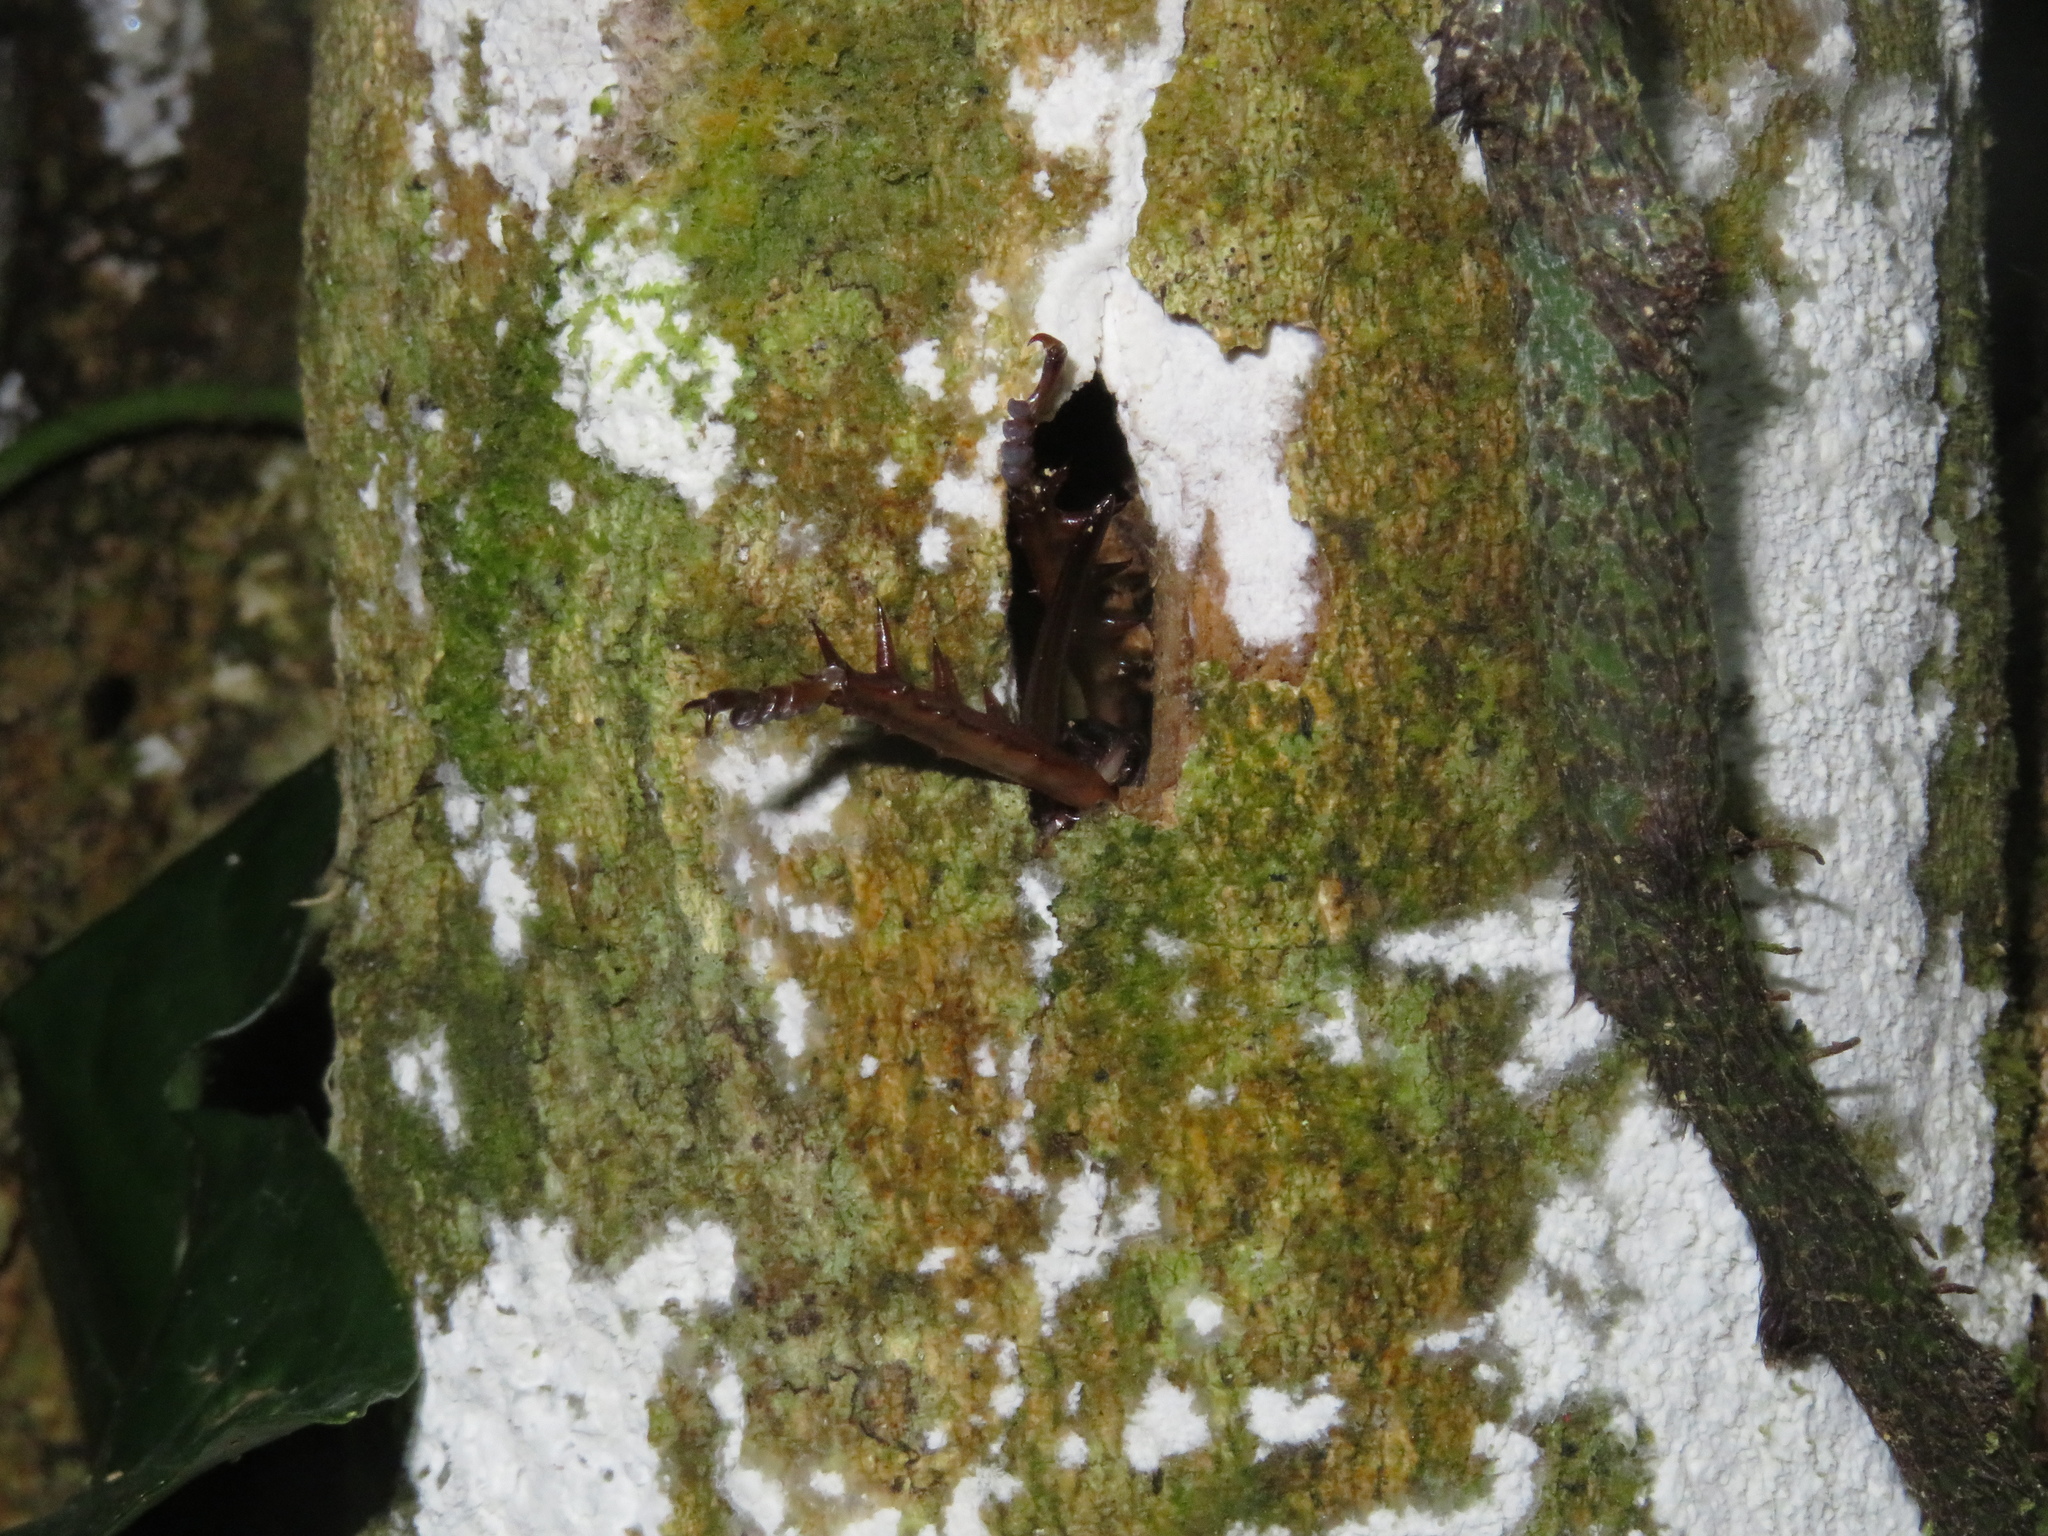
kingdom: Animalia
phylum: Arthropoda
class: Insecta
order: Orthoptera
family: Anostostomatidae
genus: Hemideina
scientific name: Hemideina crassidens
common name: Wellington tree weta
